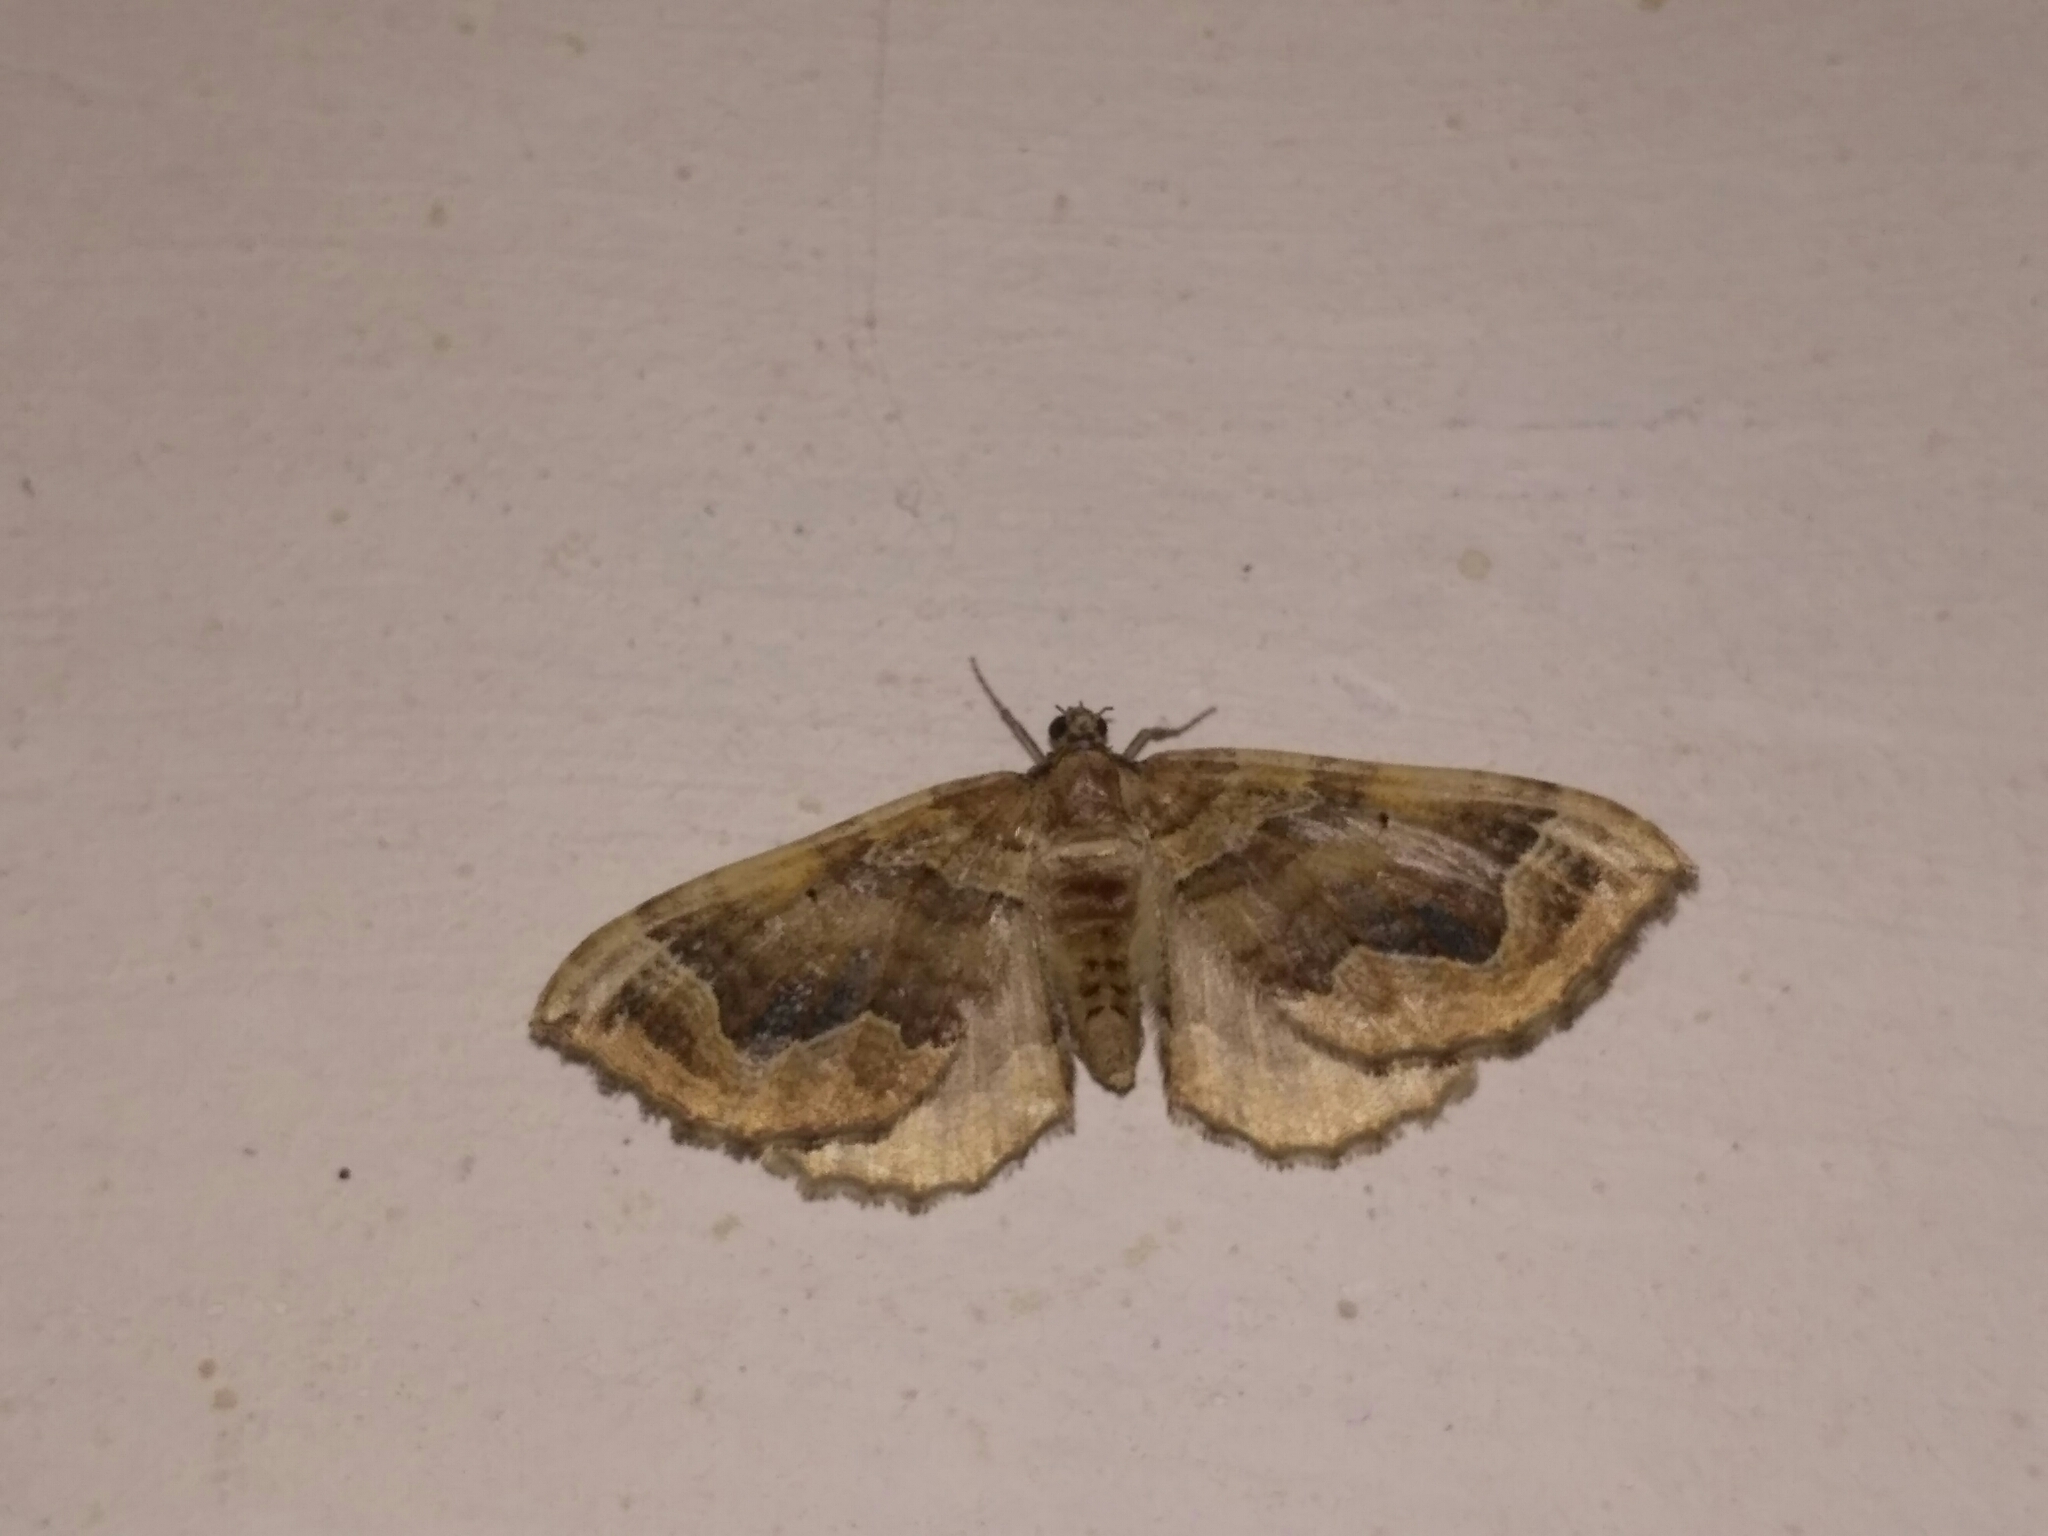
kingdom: Animalia
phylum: Arthropoda
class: Insecta
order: Lepidoptera
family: Geometridae
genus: Pelurga
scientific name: Pelurga comitata
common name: Dark spinach
